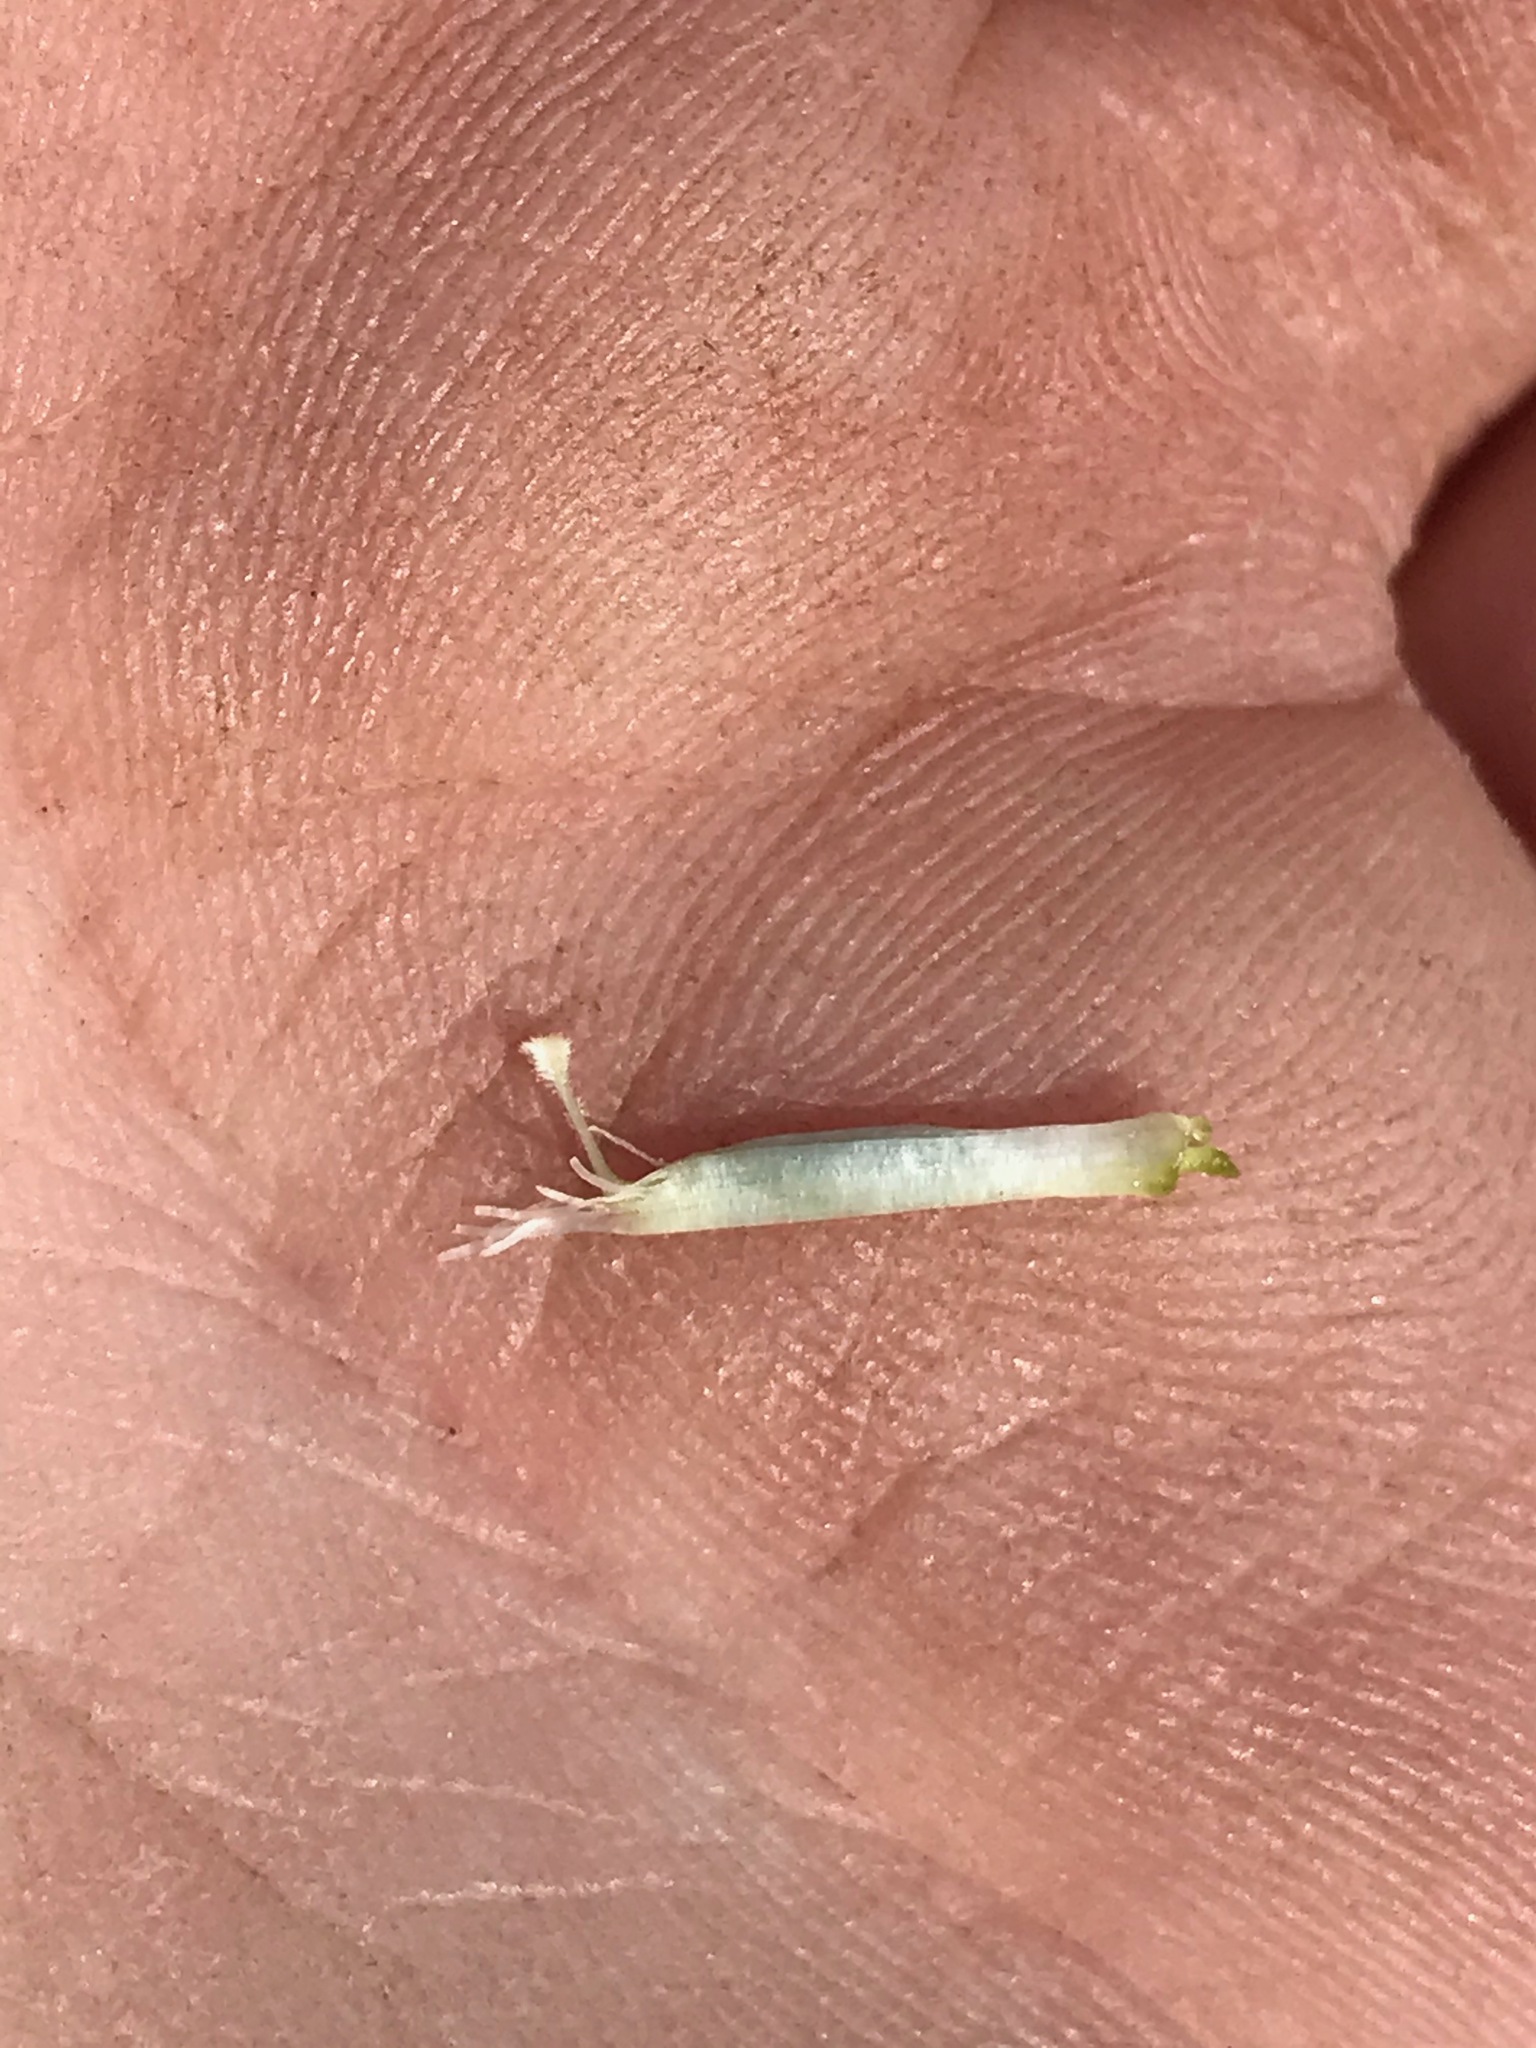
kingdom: Plantae
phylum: Tracheophyta
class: Magnoliopsida
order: Fabales
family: Fabaceae
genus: Vicia
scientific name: Vicia americana
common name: American vetch
